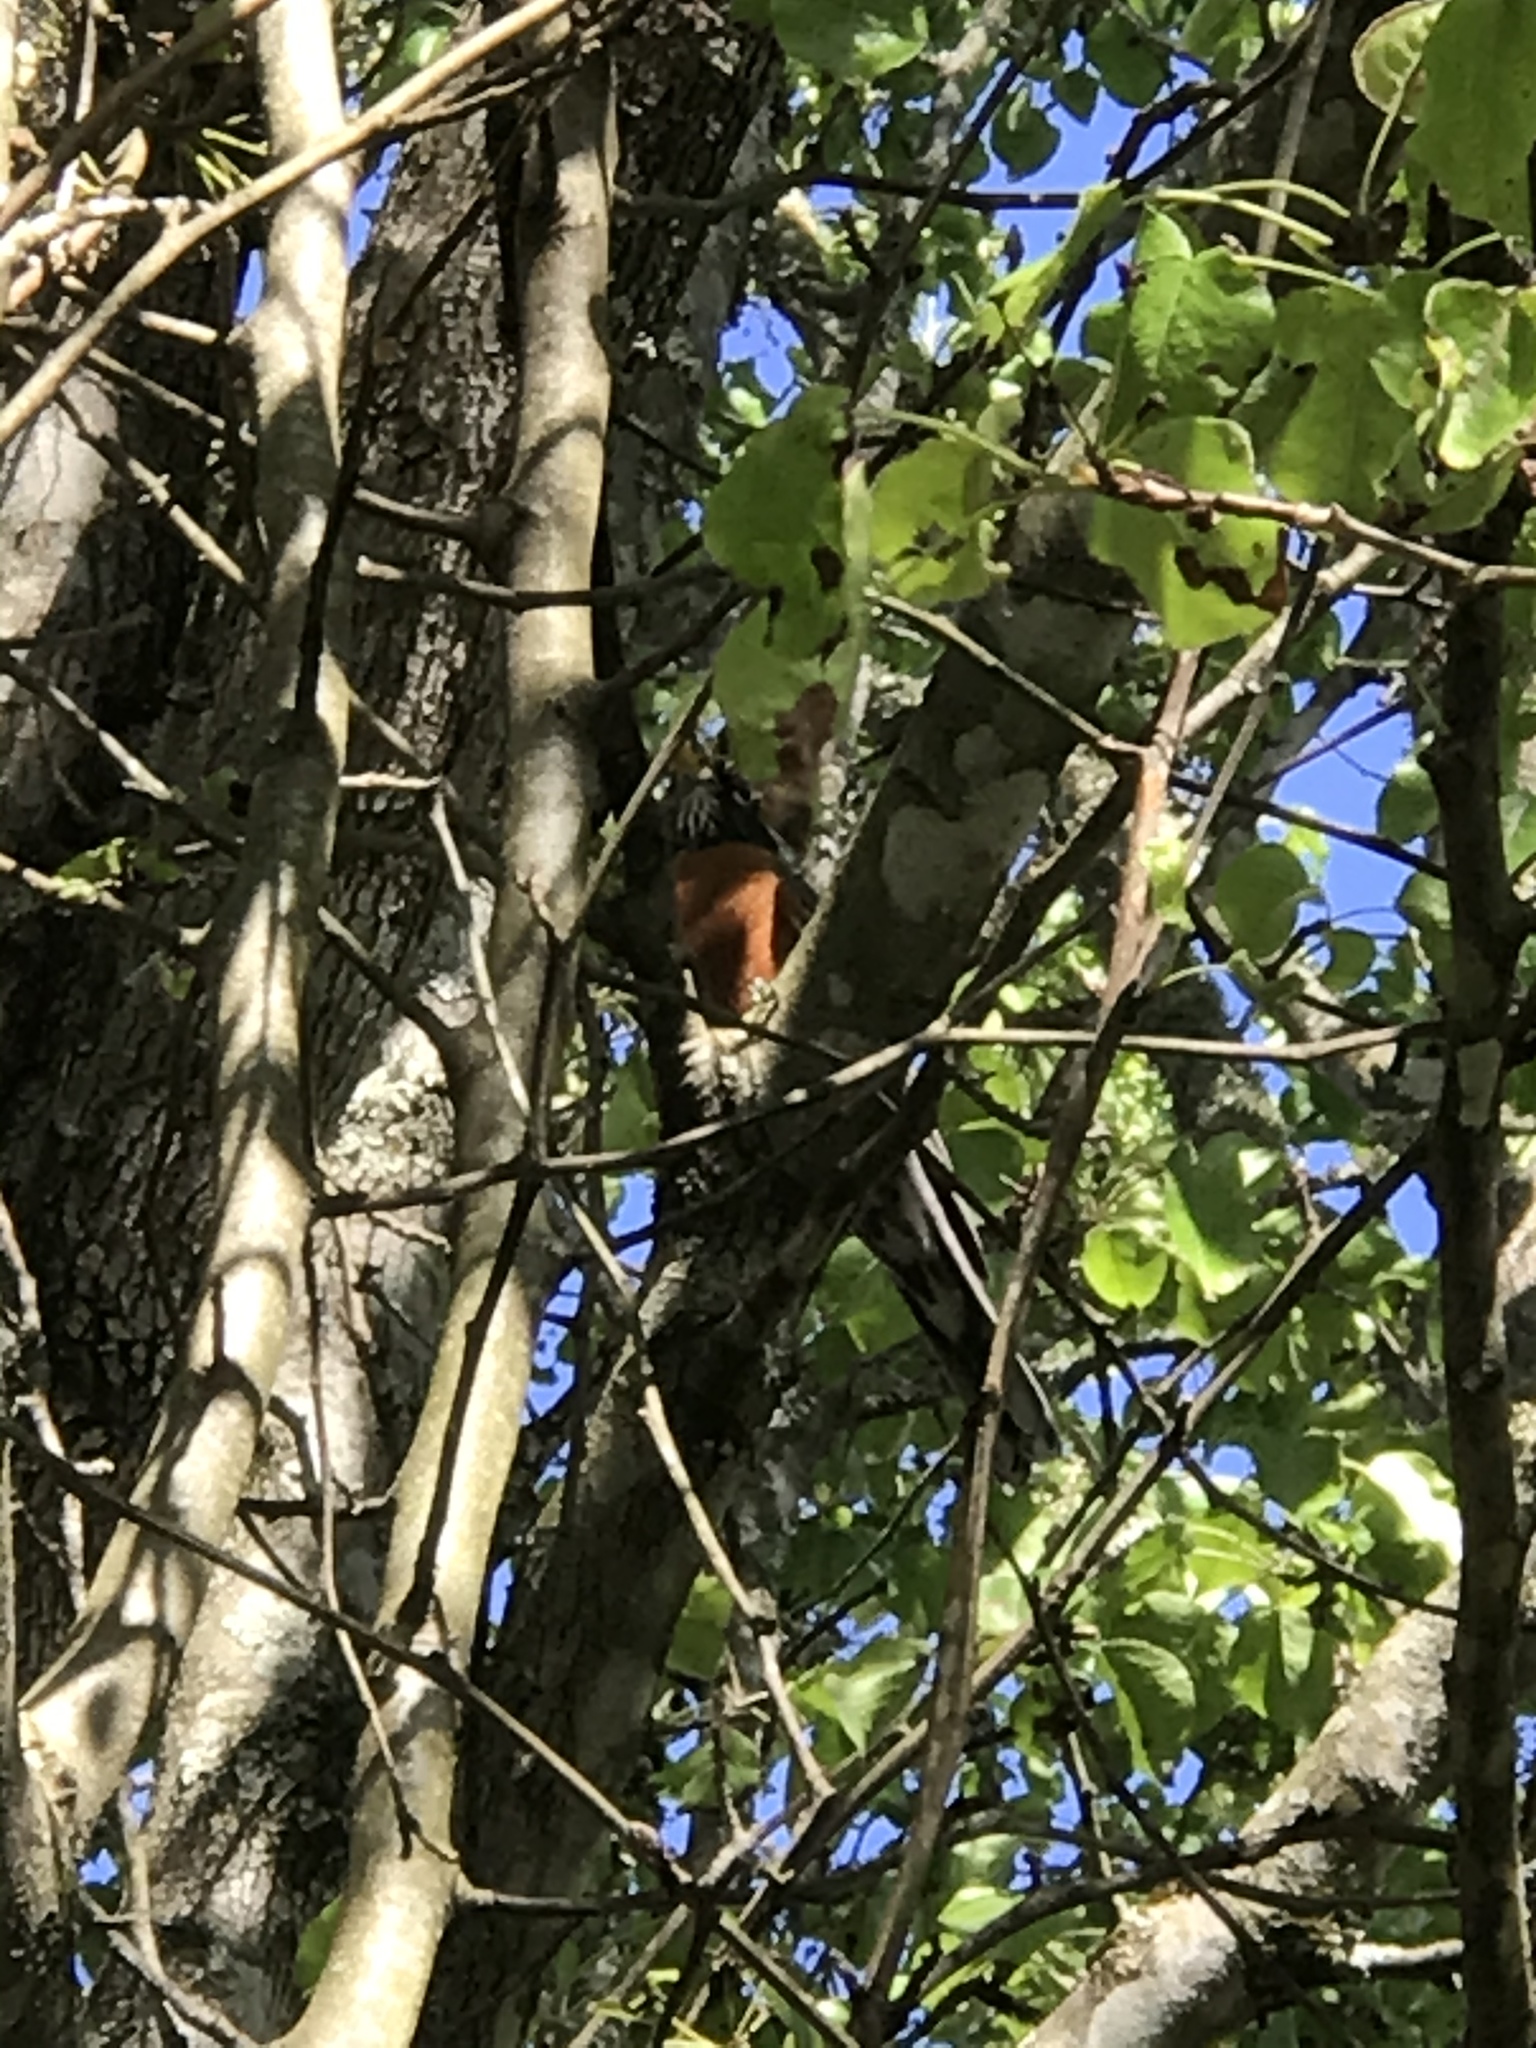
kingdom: Animalia
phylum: Chordata
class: Aves
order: Passeriformes
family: Turdidae
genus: Turdus
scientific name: Turdus migratorius
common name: American robin
